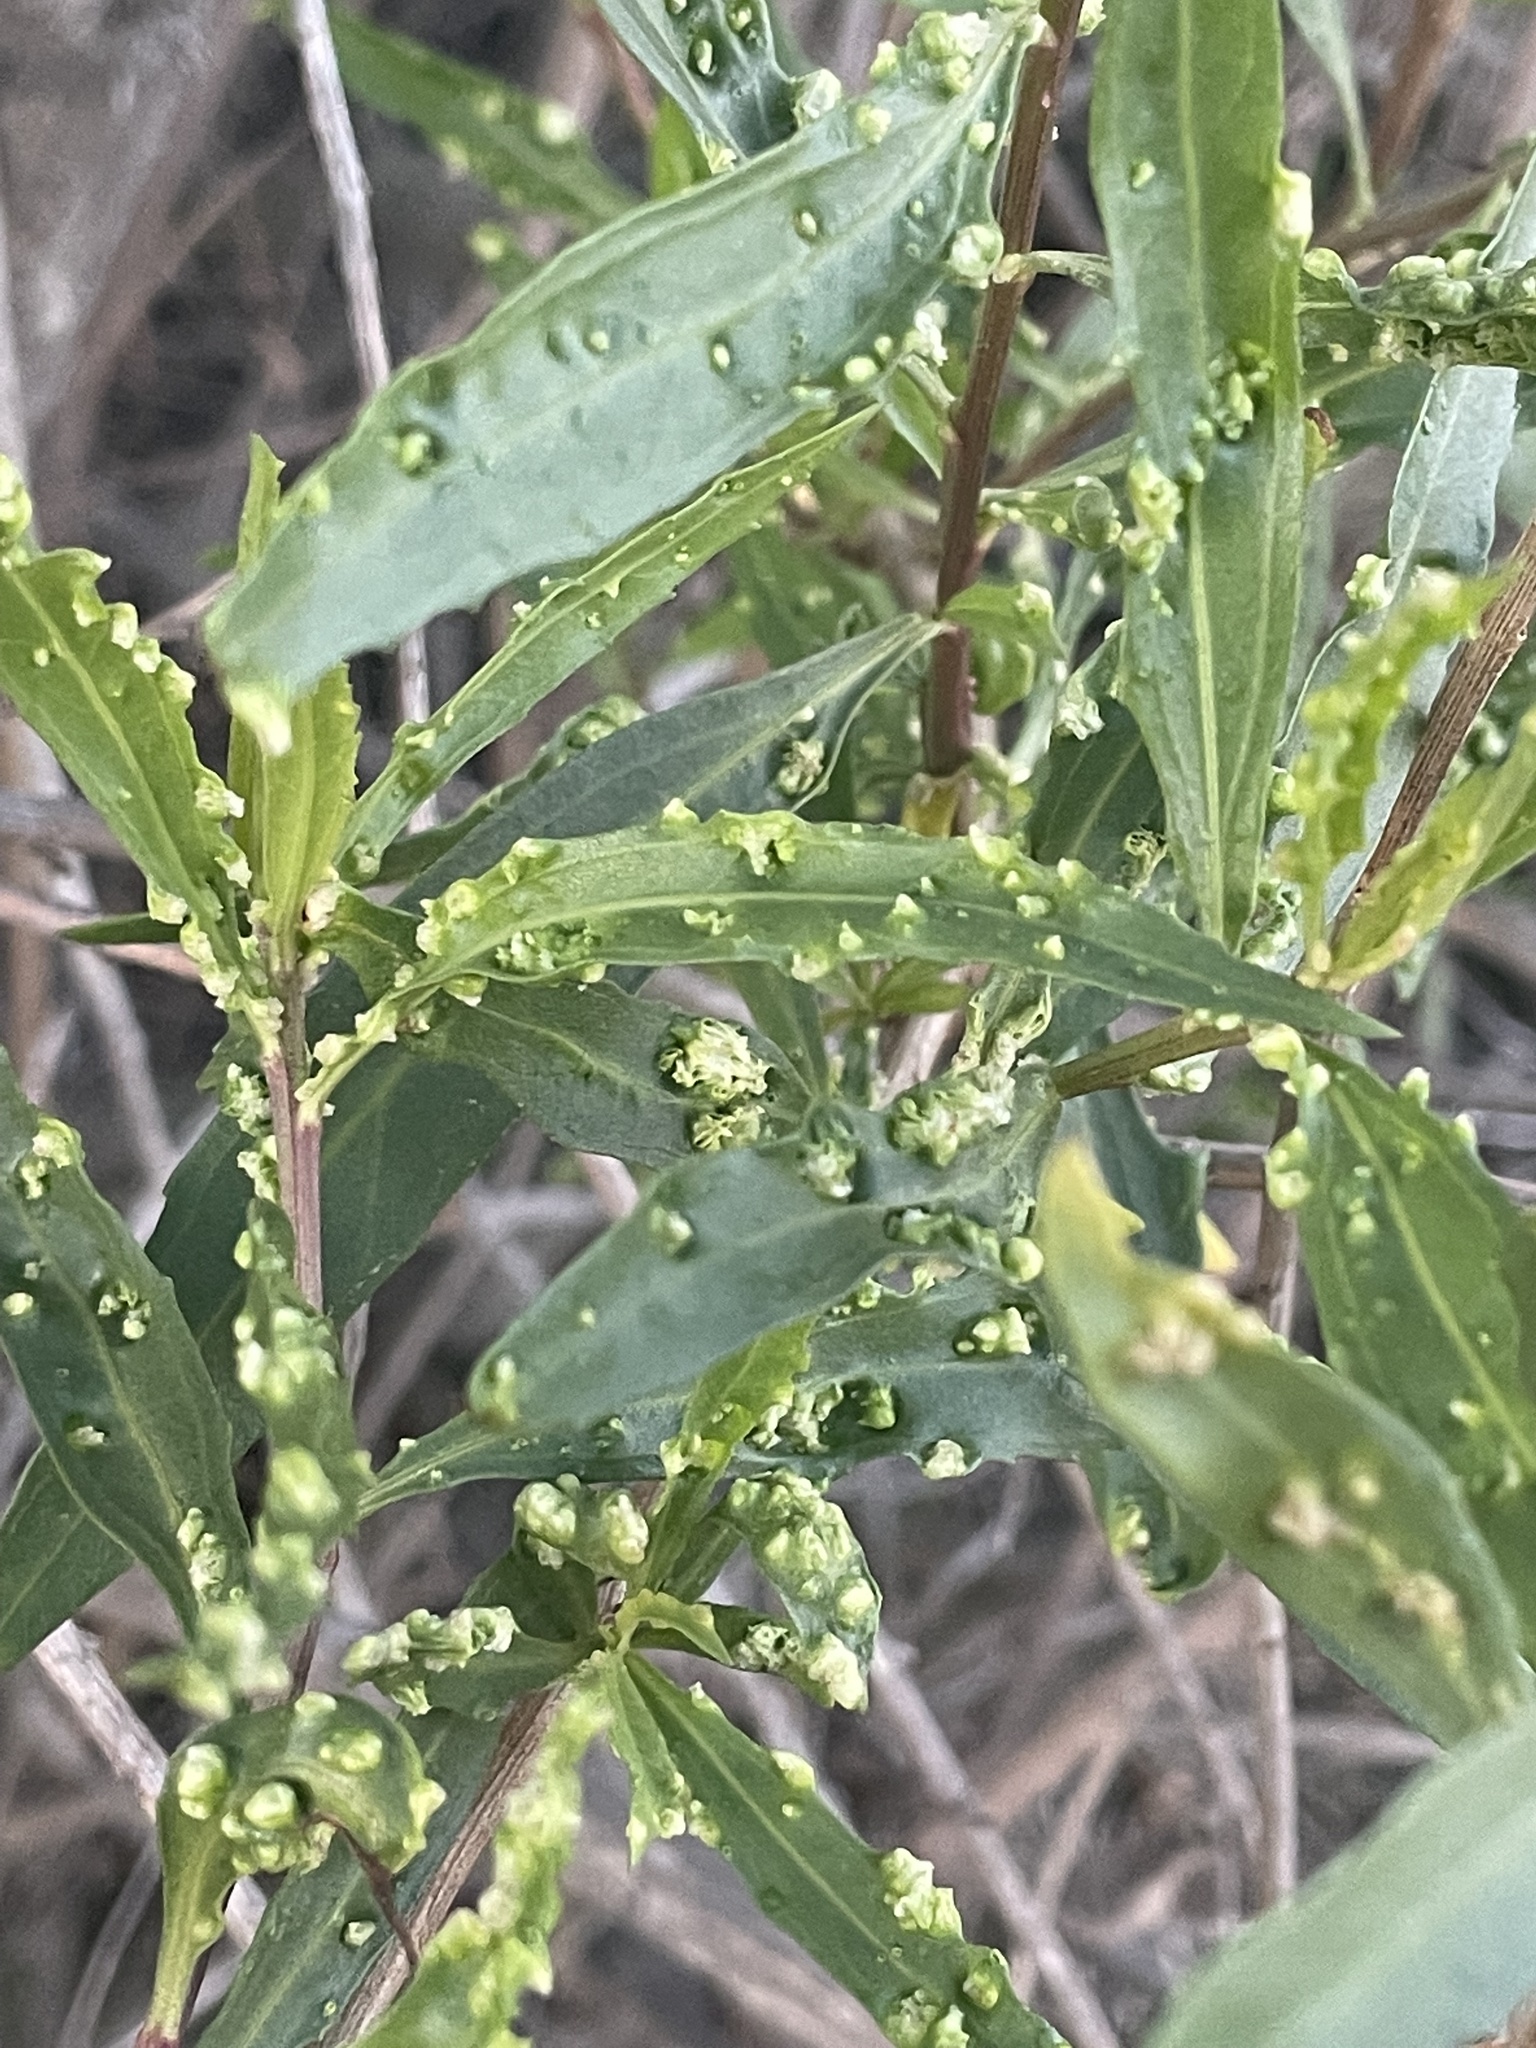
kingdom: Animalia
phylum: Arthropoda
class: Arachnida
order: Trombidiformes
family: Eriophyidae
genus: Aceria
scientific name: Aceria
